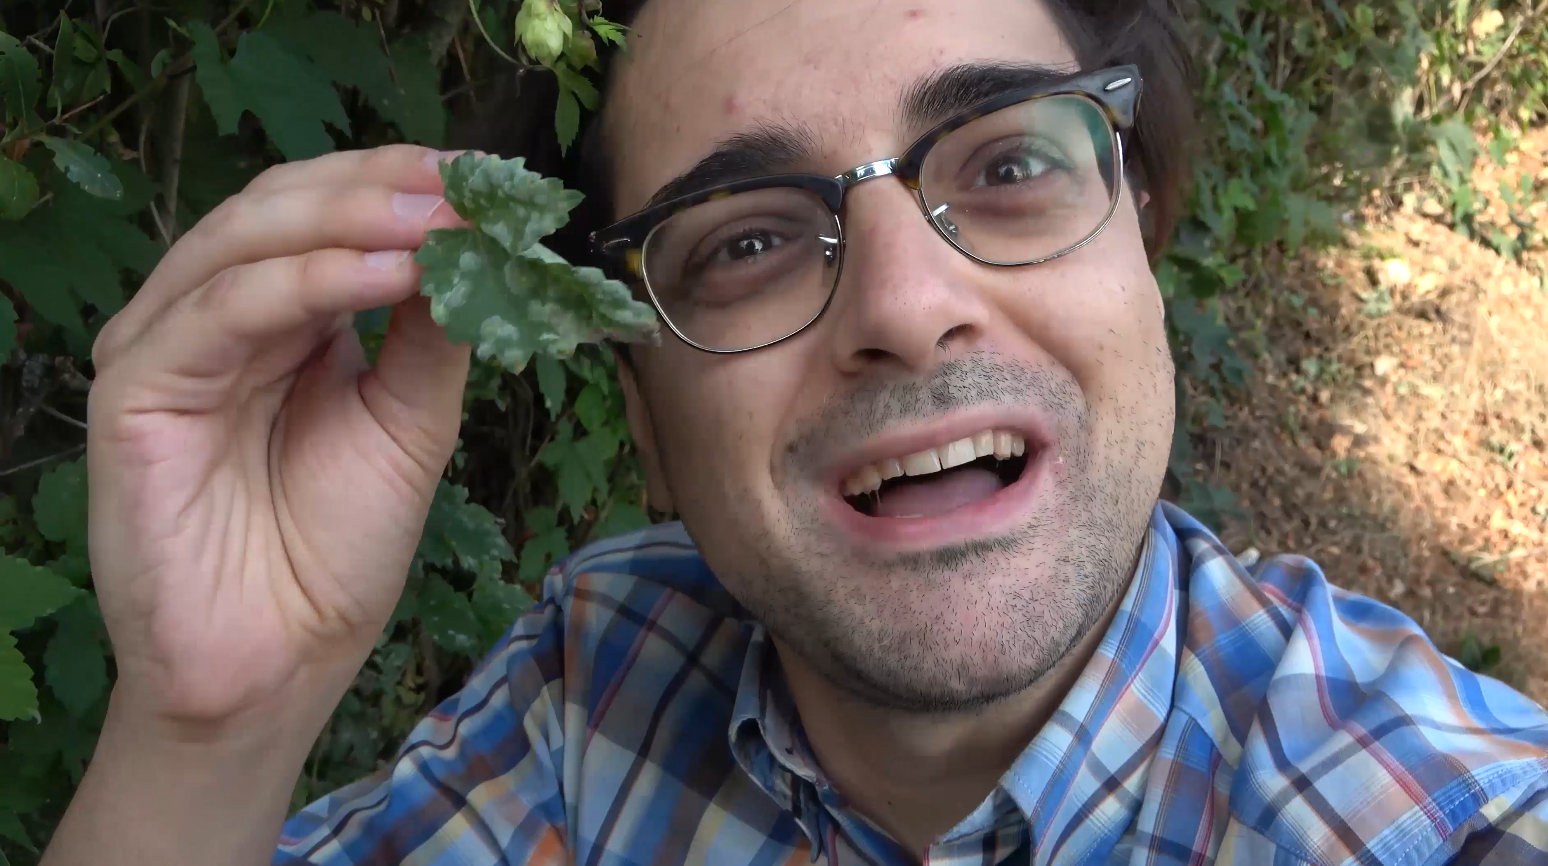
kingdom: Fungi
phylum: Ascomycota
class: Leotiomycetes
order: Helotiales
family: Erysiphaceae
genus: Podosphaera
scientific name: Podosphaera macularis
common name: Powdery mildew
